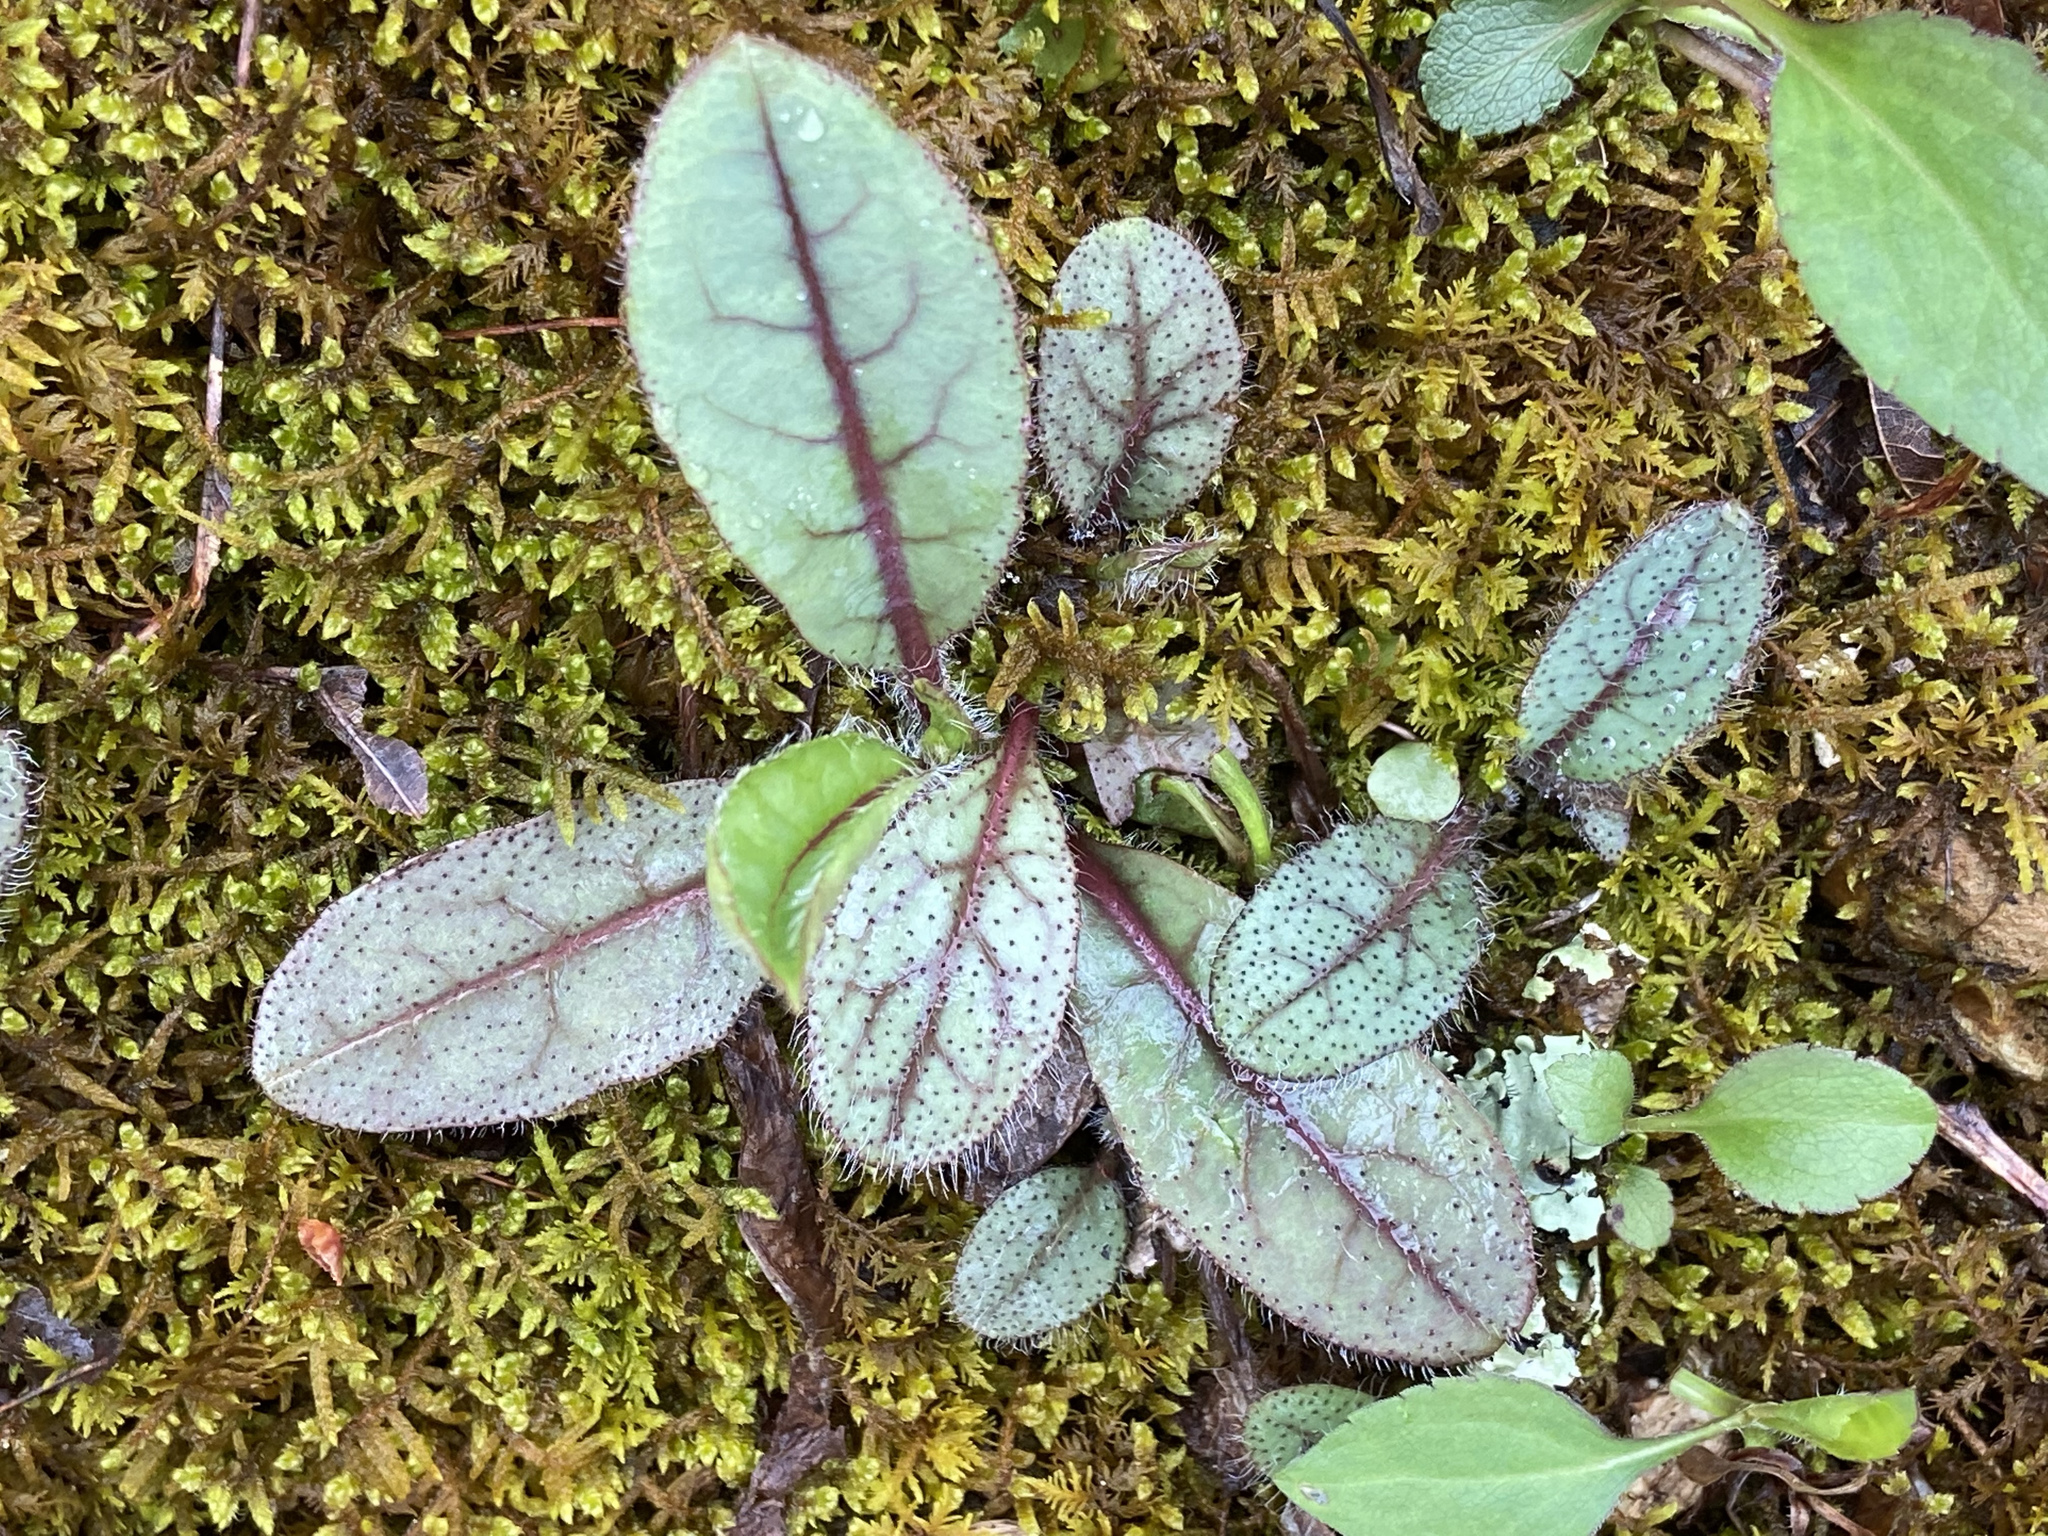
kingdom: Plantae
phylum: Tracheophyta
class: Magnoliopsida
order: Asterales
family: Asteraceae
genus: Hieracium
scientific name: Hieracium venosum
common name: Rattlesnake hawkweed
